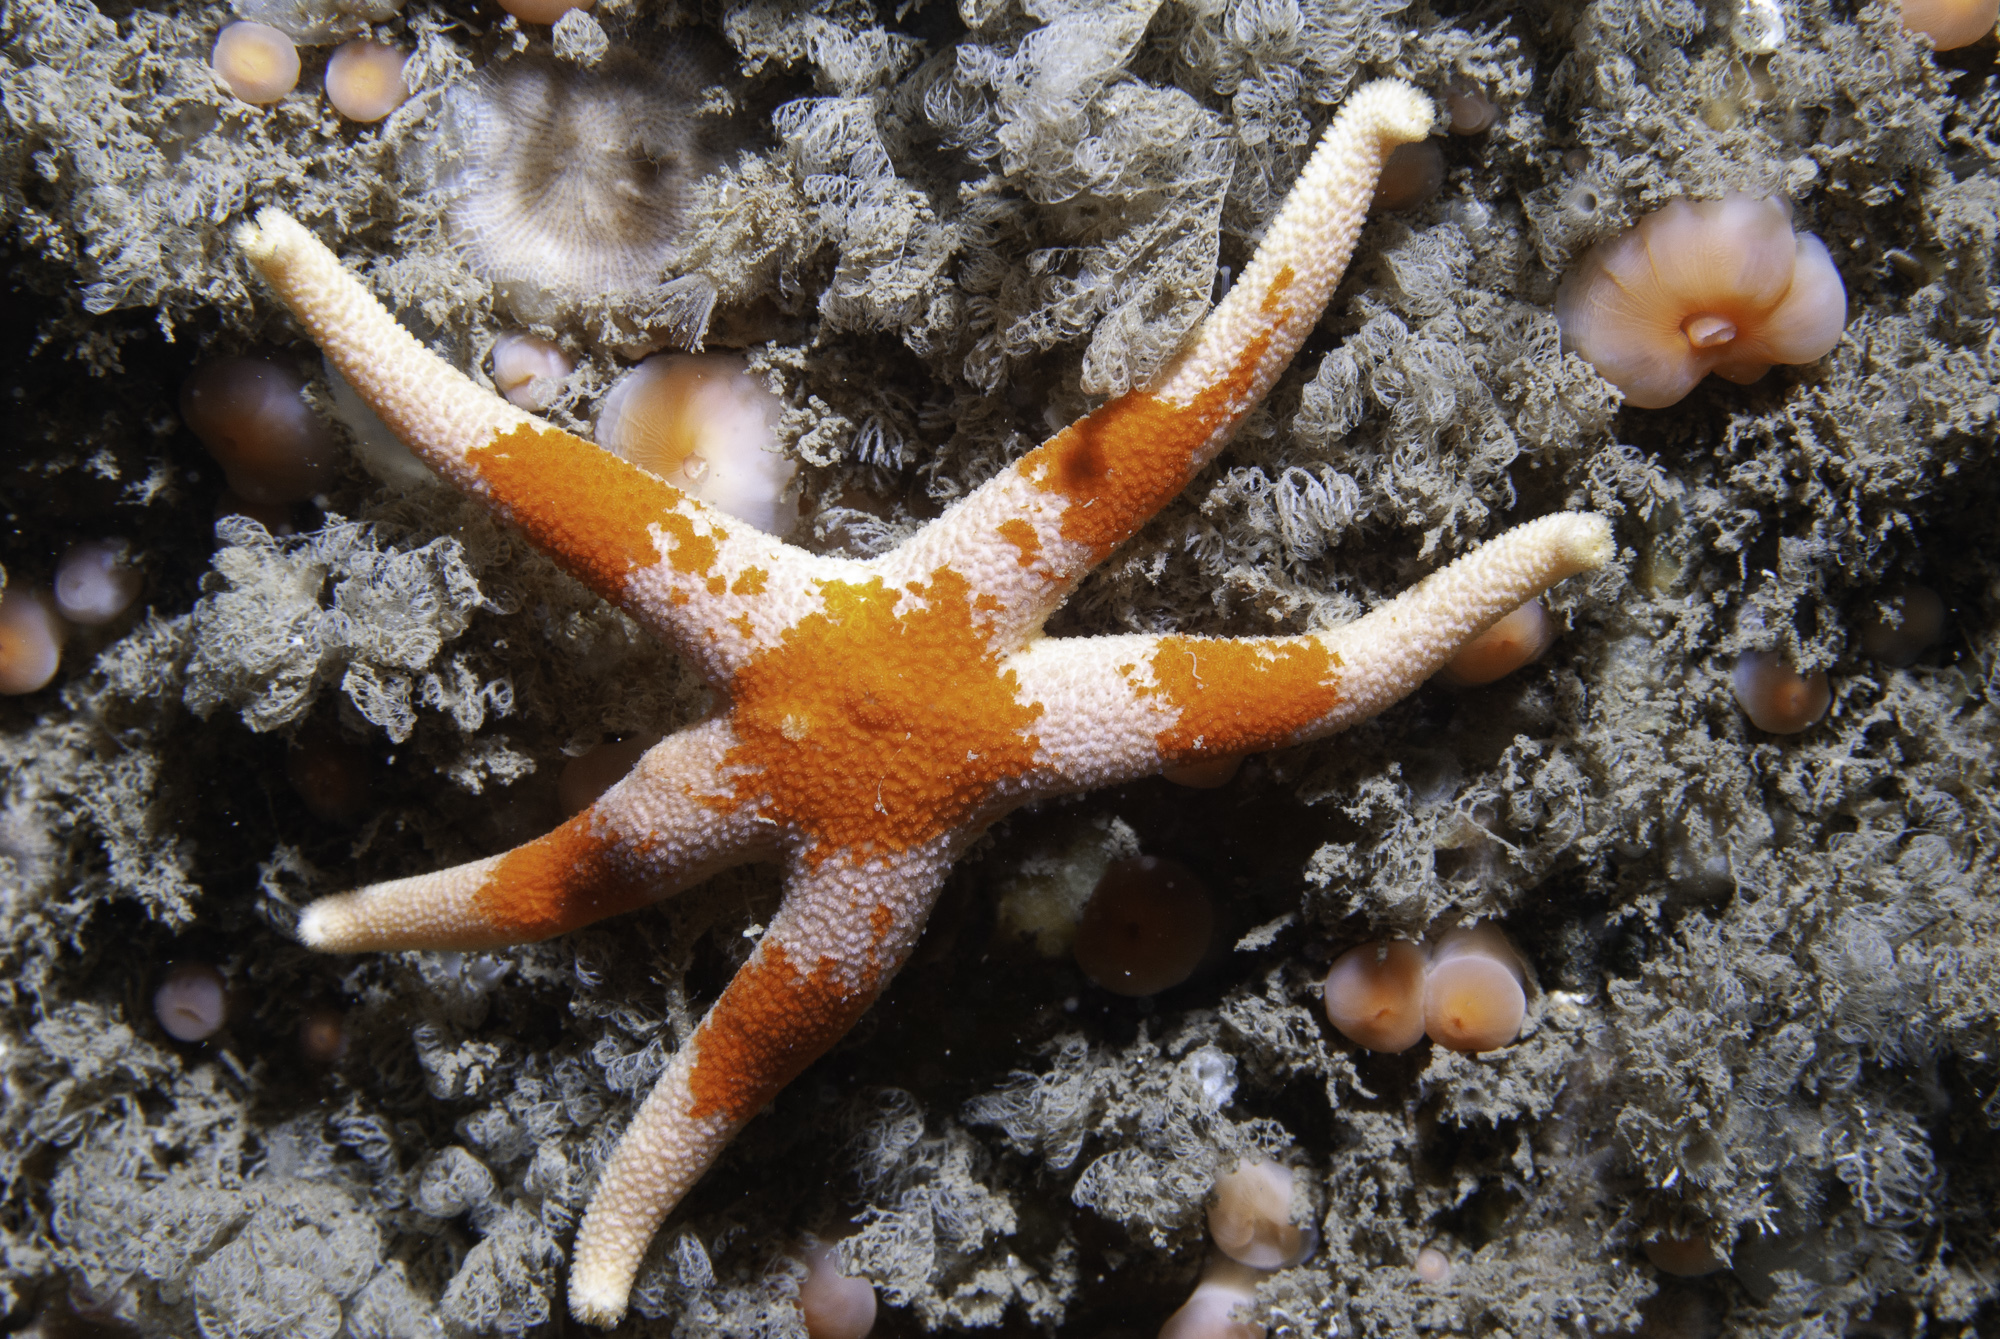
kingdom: Animalia
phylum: Echinodermata
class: Asteroidea
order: Spinulosida
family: Echinasteridae
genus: Henricia
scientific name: Henricia oculata
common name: Bloody henry starfish
